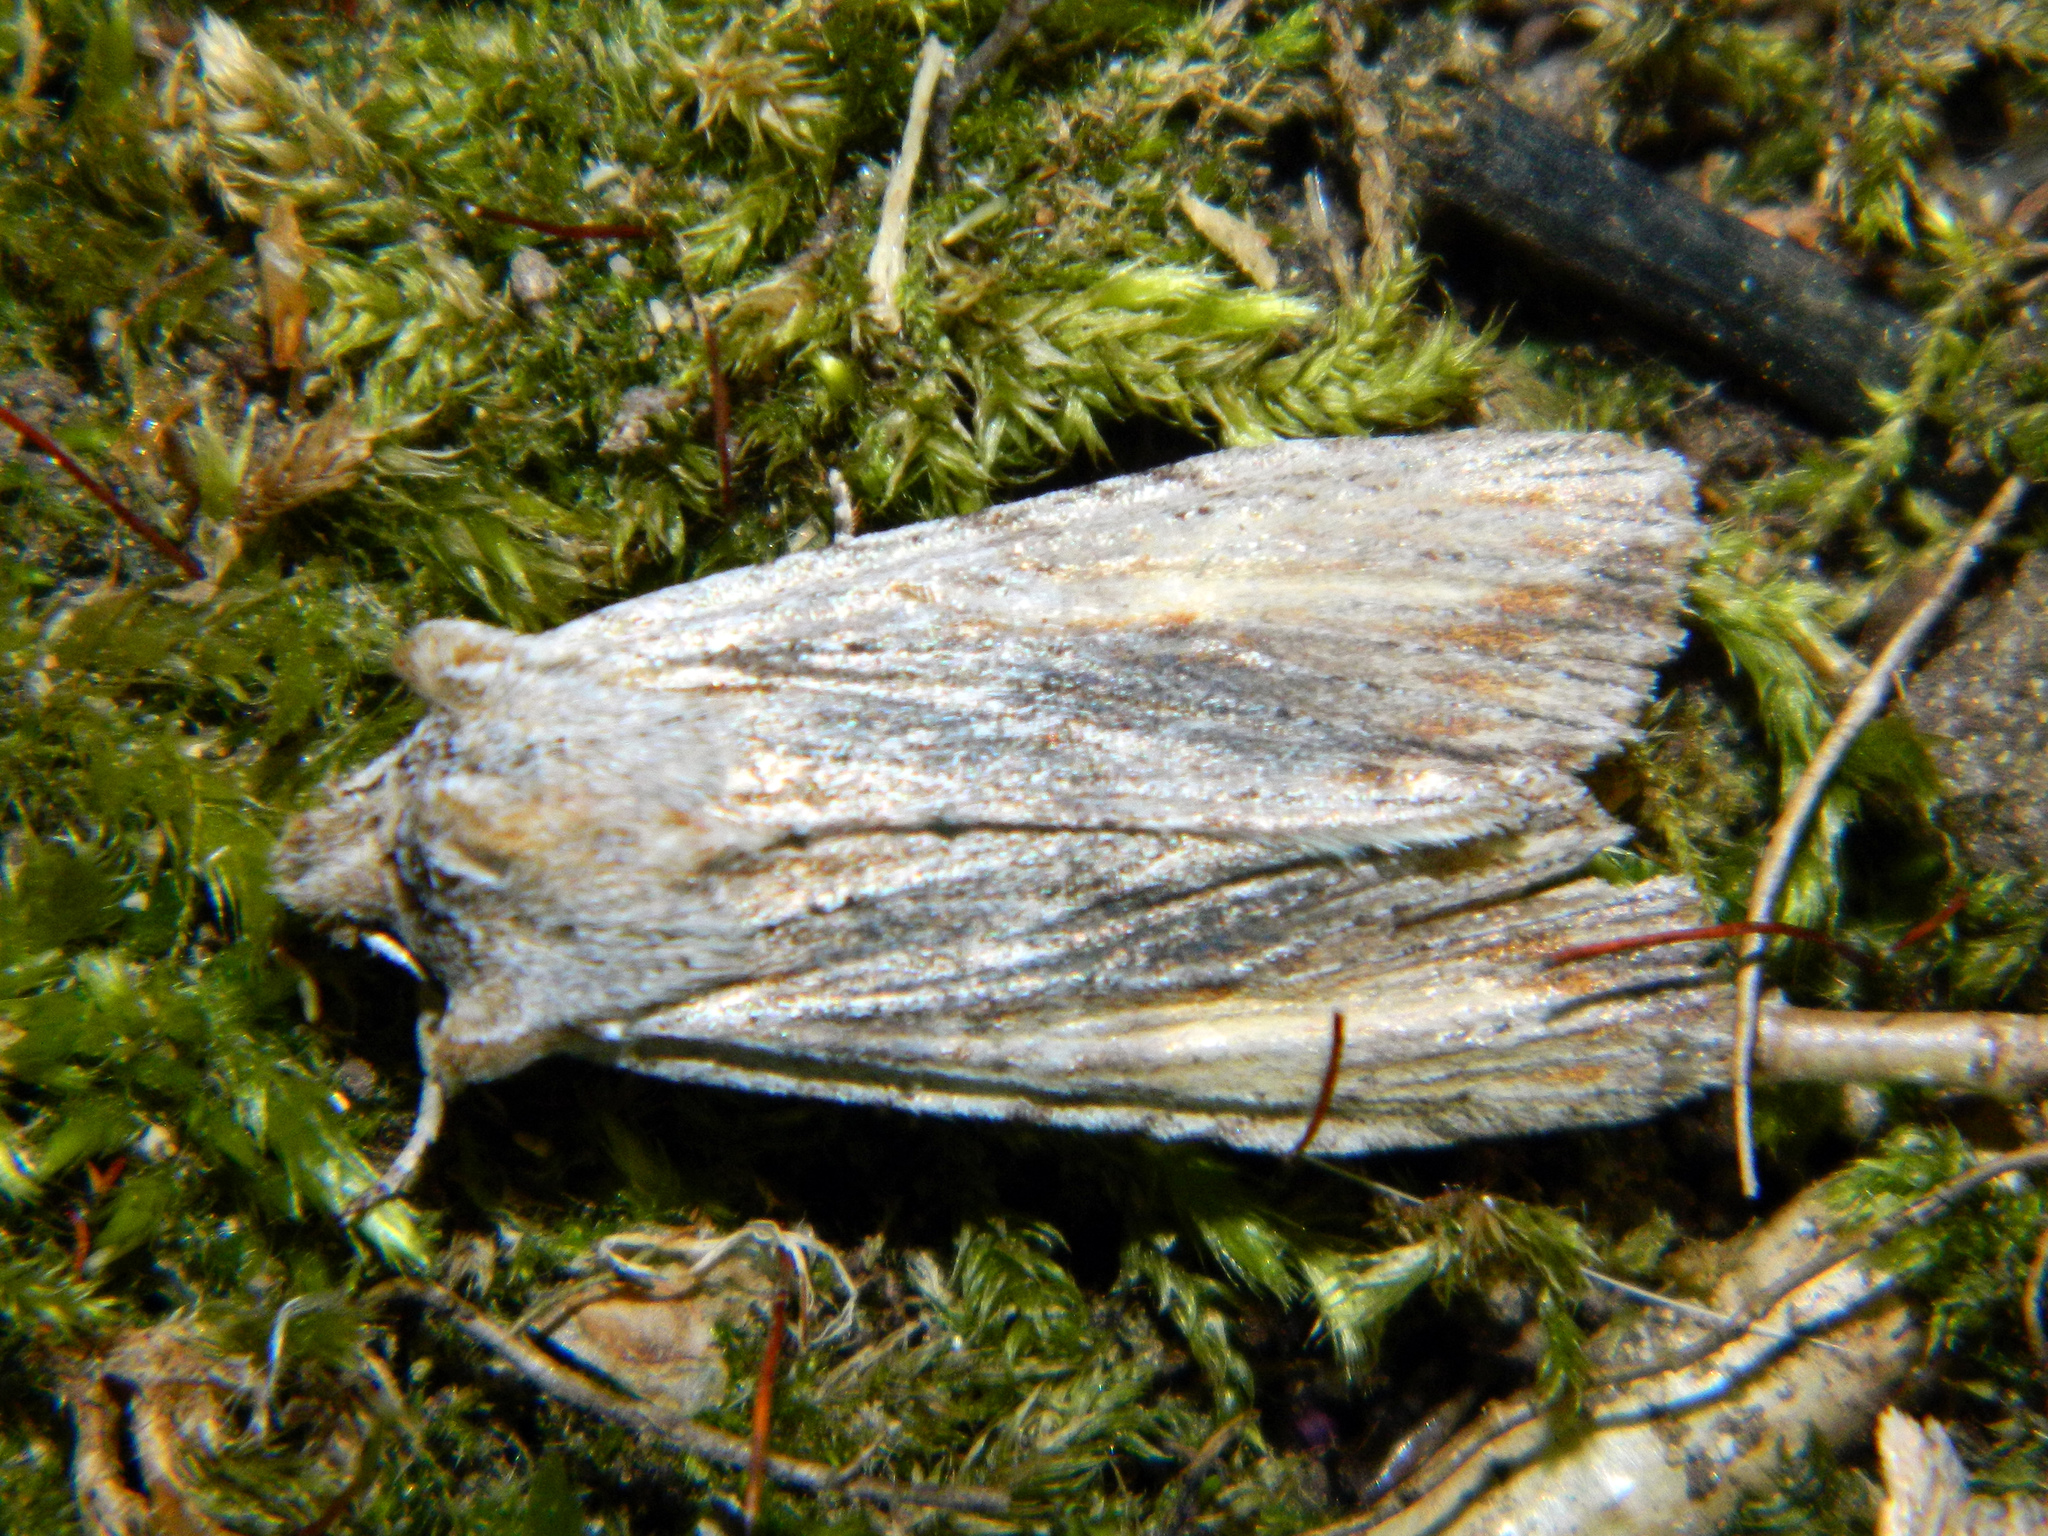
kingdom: Animalia
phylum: Arthropoda
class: Insecta
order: Lepidoptera
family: Noctuidae
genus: Lithophane
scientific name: Lithophane amanda
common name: Amanda's pinion moth
